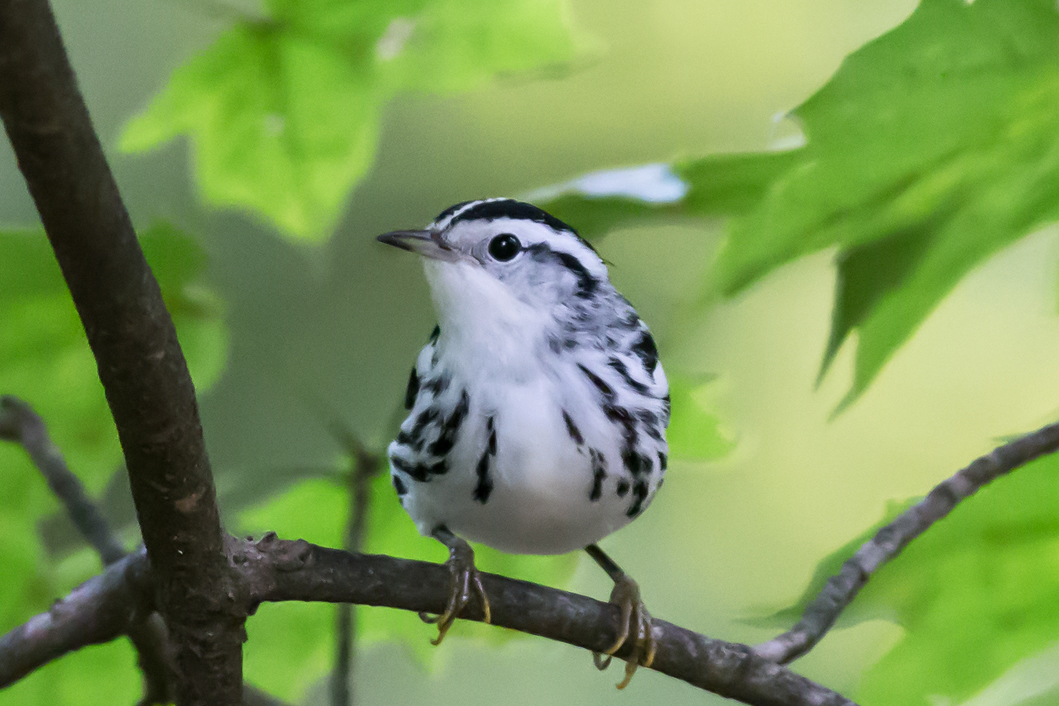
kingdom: Animalia
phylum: Chordata
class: Aves
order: Passeriformes
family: Parulidae
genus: Mniotilta
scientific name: Mniotilta varia
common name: Black-and-white warbler
